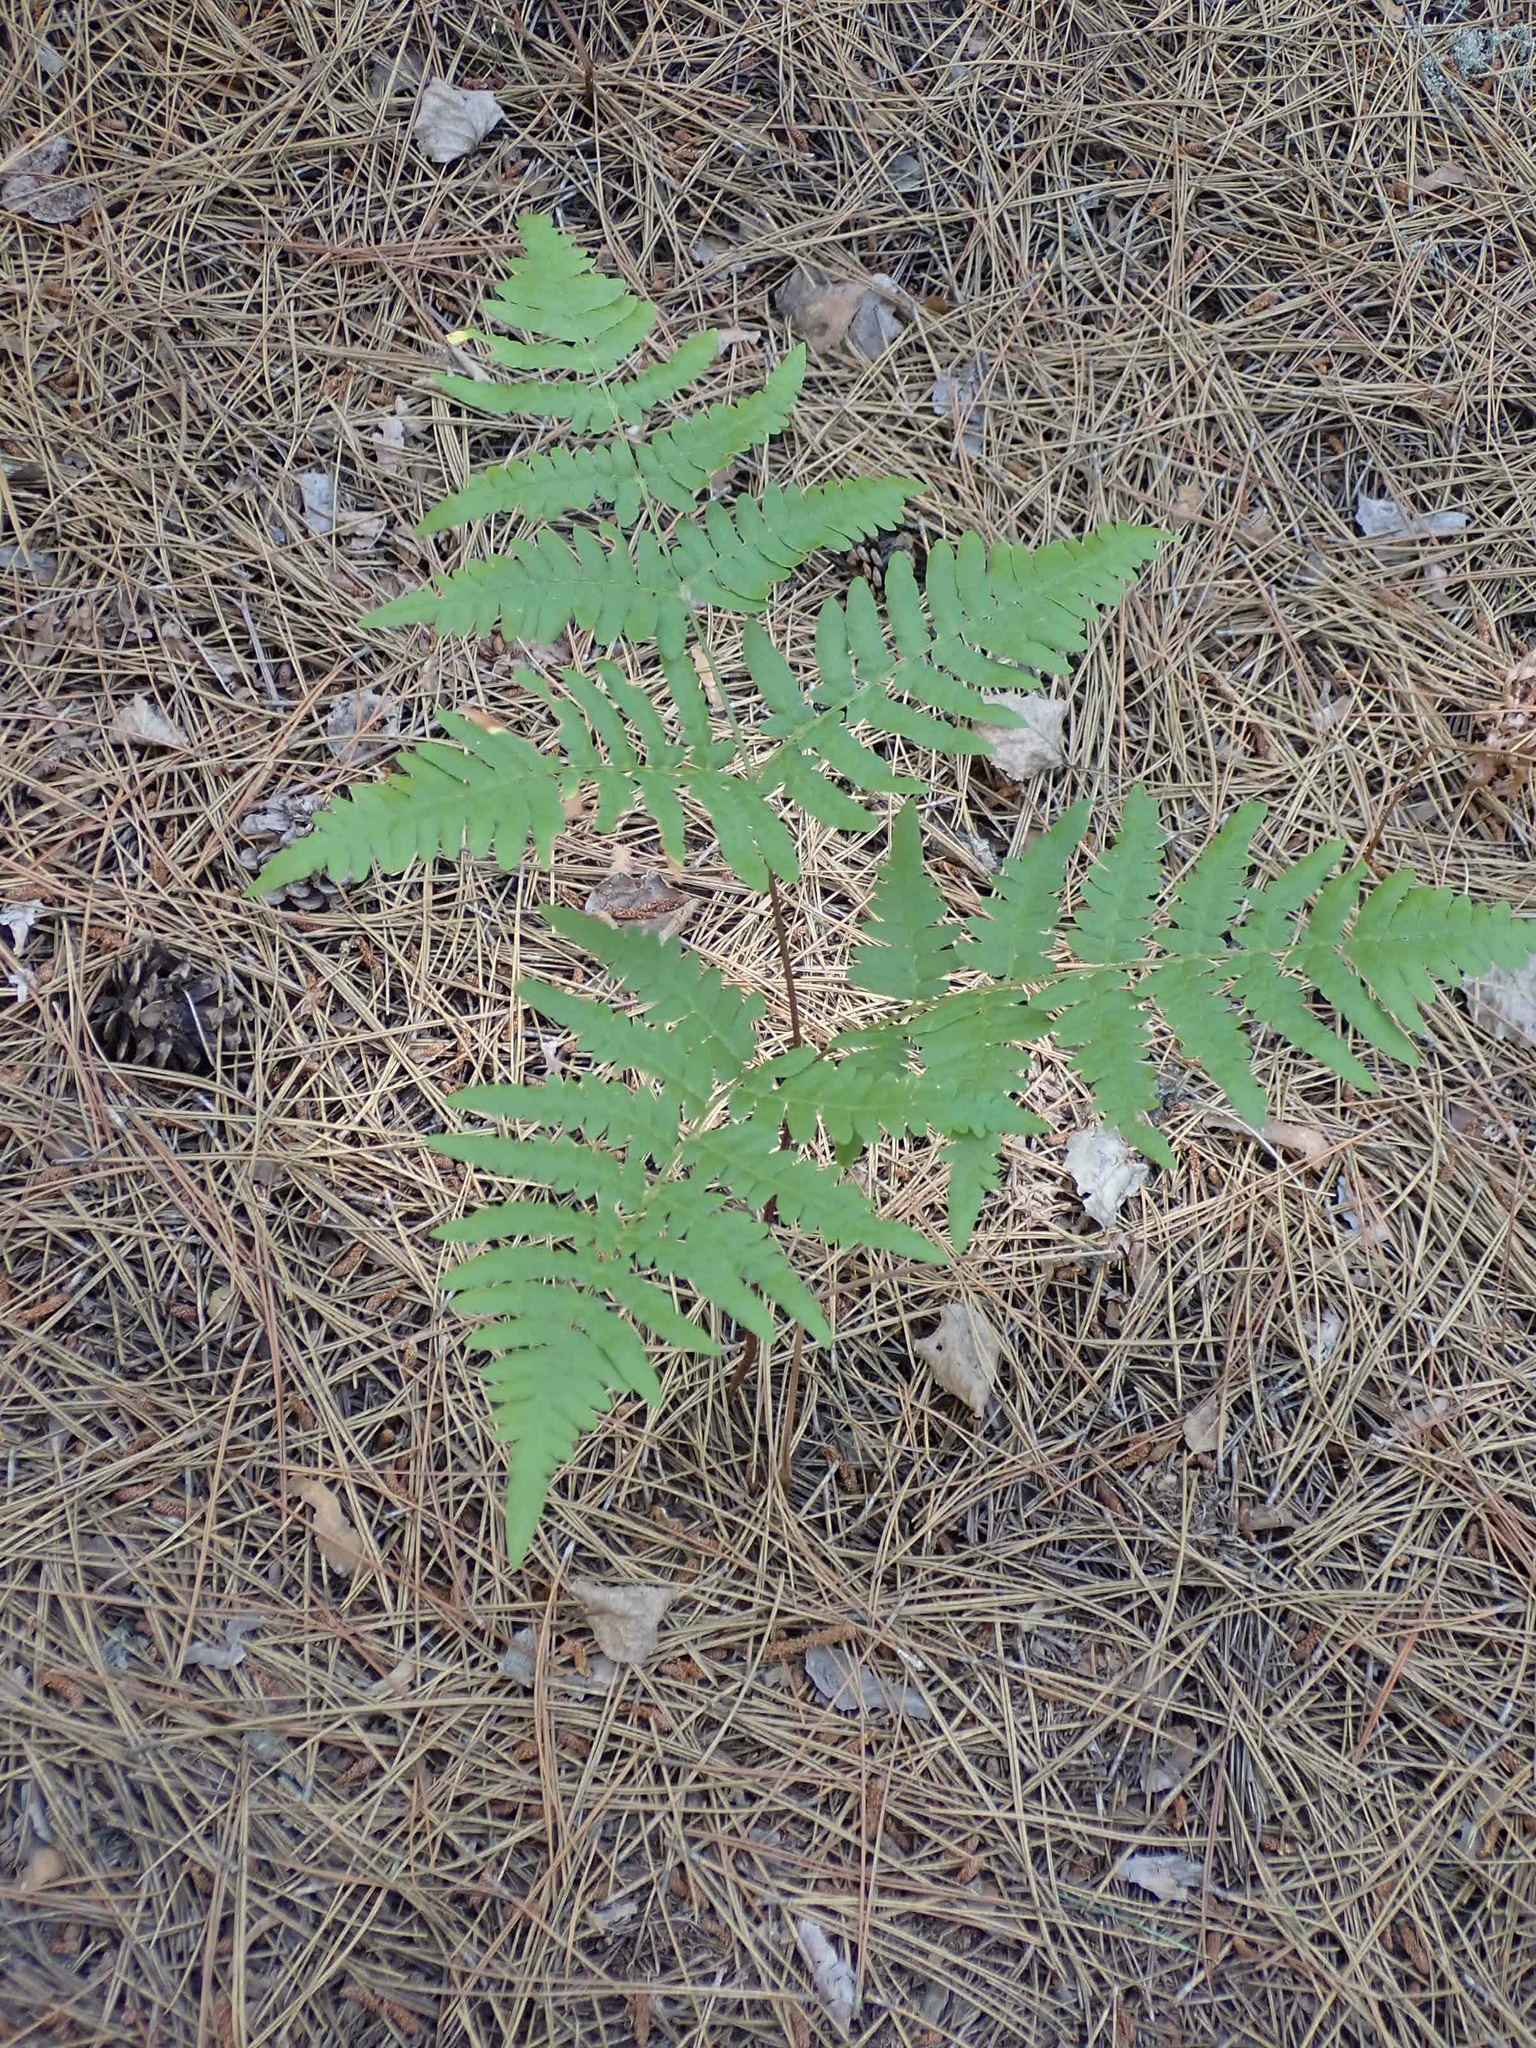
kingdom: Plantae
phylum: Tracheophyta
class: Polypodiopsida
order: Polypodiales
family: Dennstaedtiaceae
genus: Pteridium
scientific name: Pteridium aquilinum
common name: Bracken
